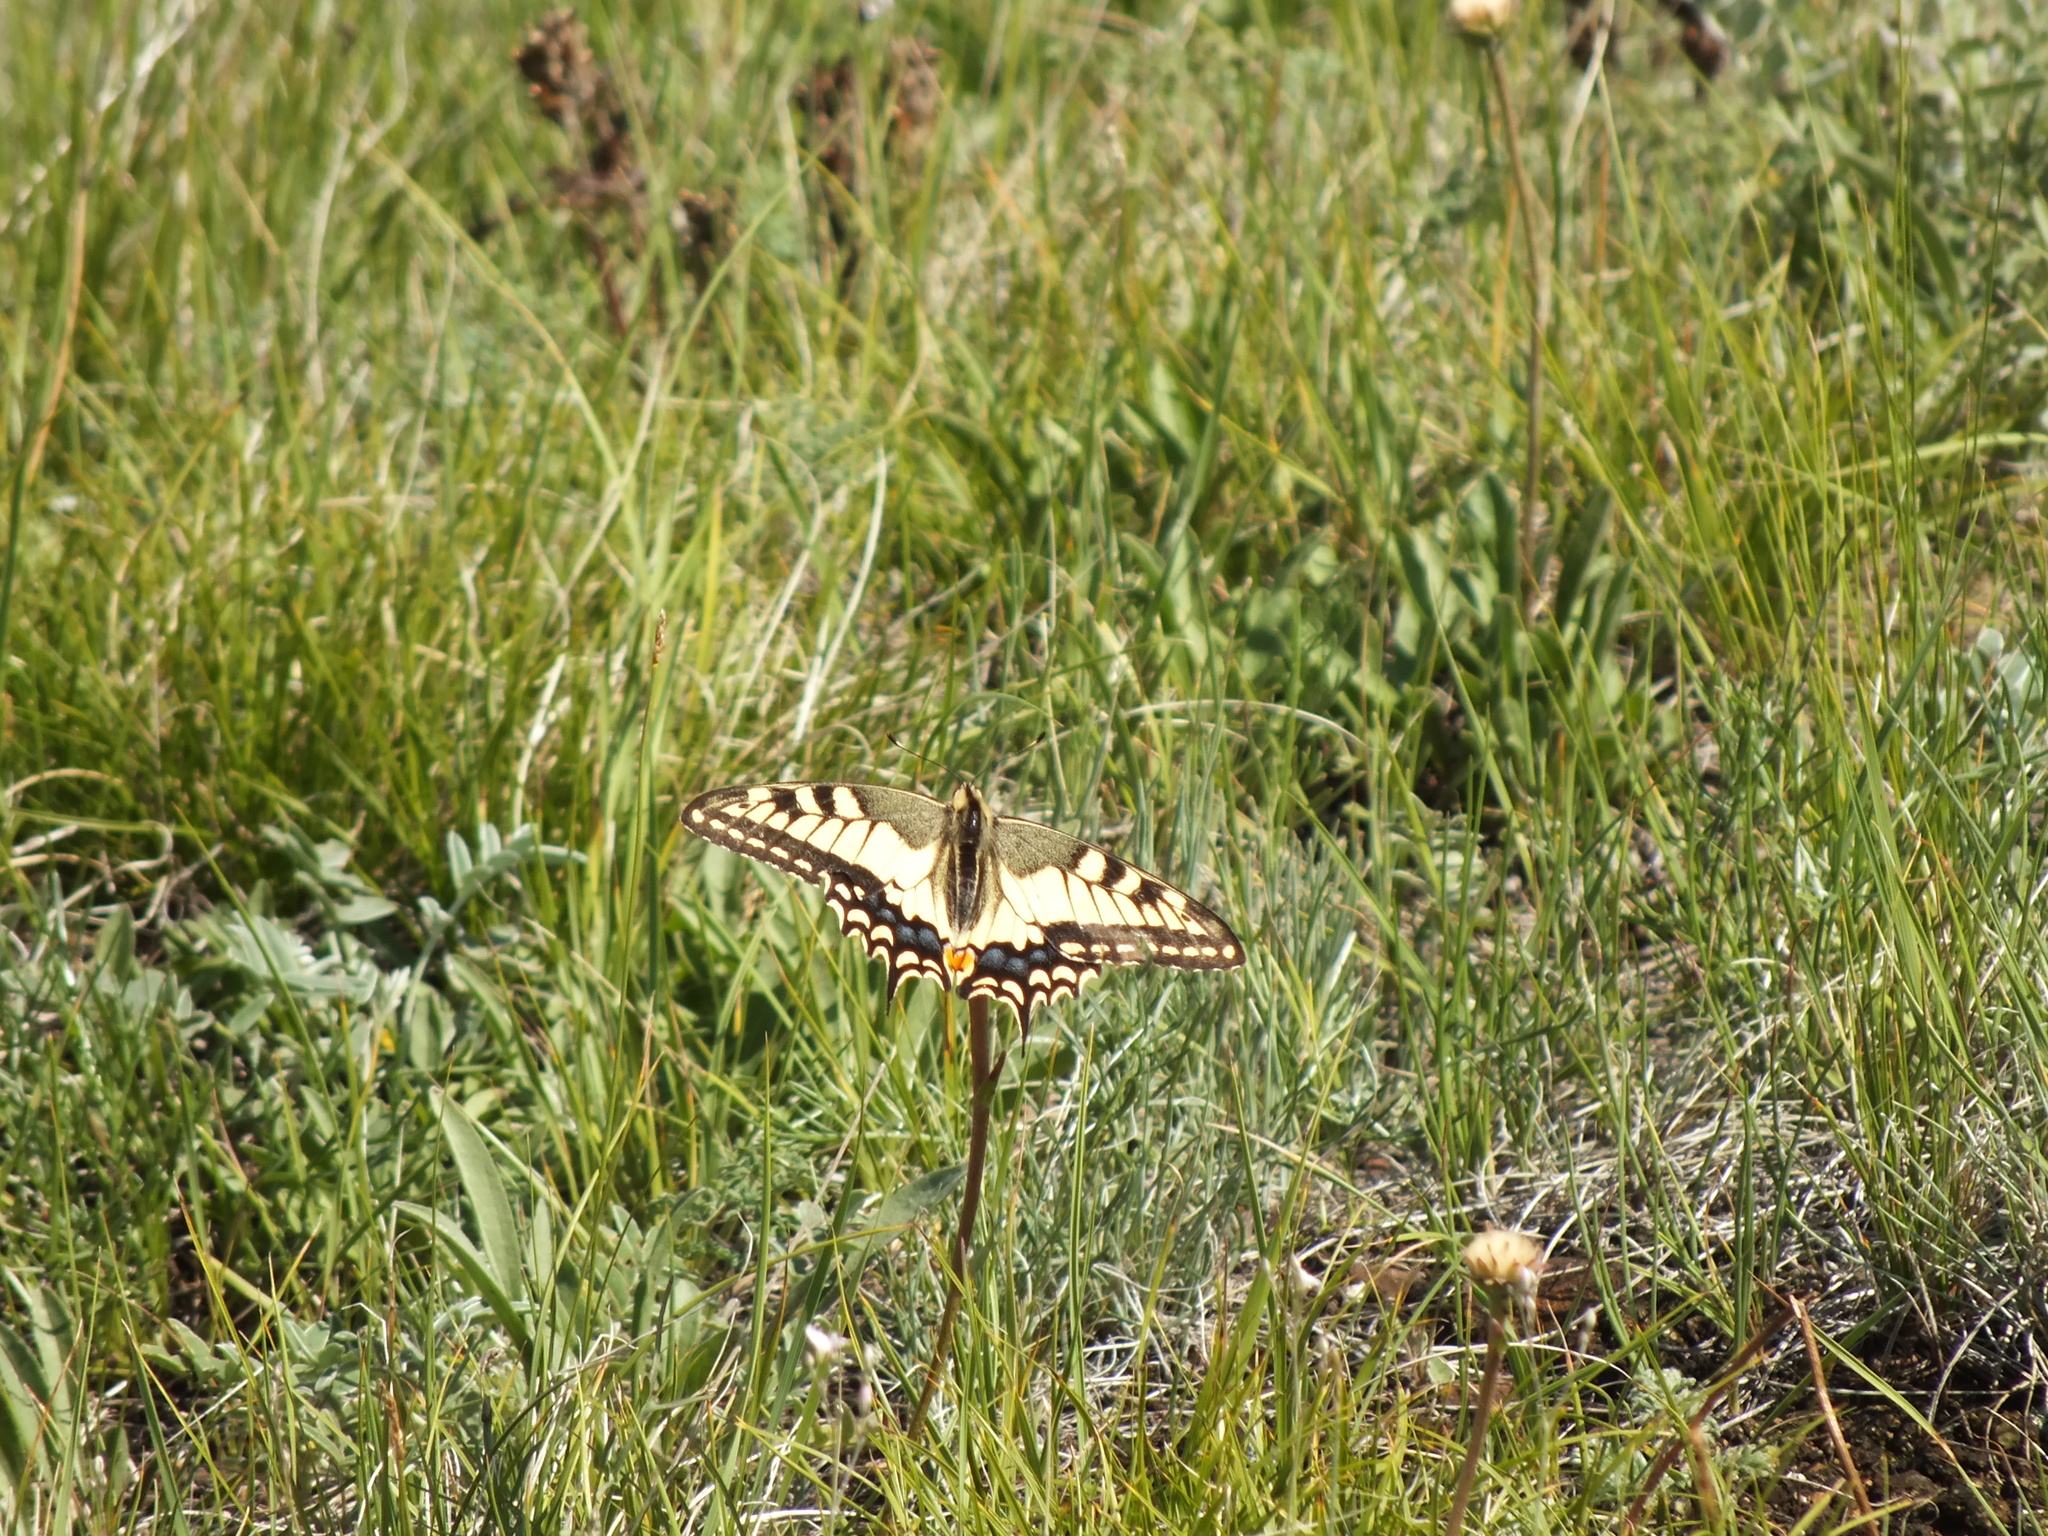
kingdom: Animalia
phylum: Arthropoda
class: Insecta
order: Lepidoptera
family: Papilionidae
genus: Papilio
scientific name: Papilio machaon
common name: Swallowtail
